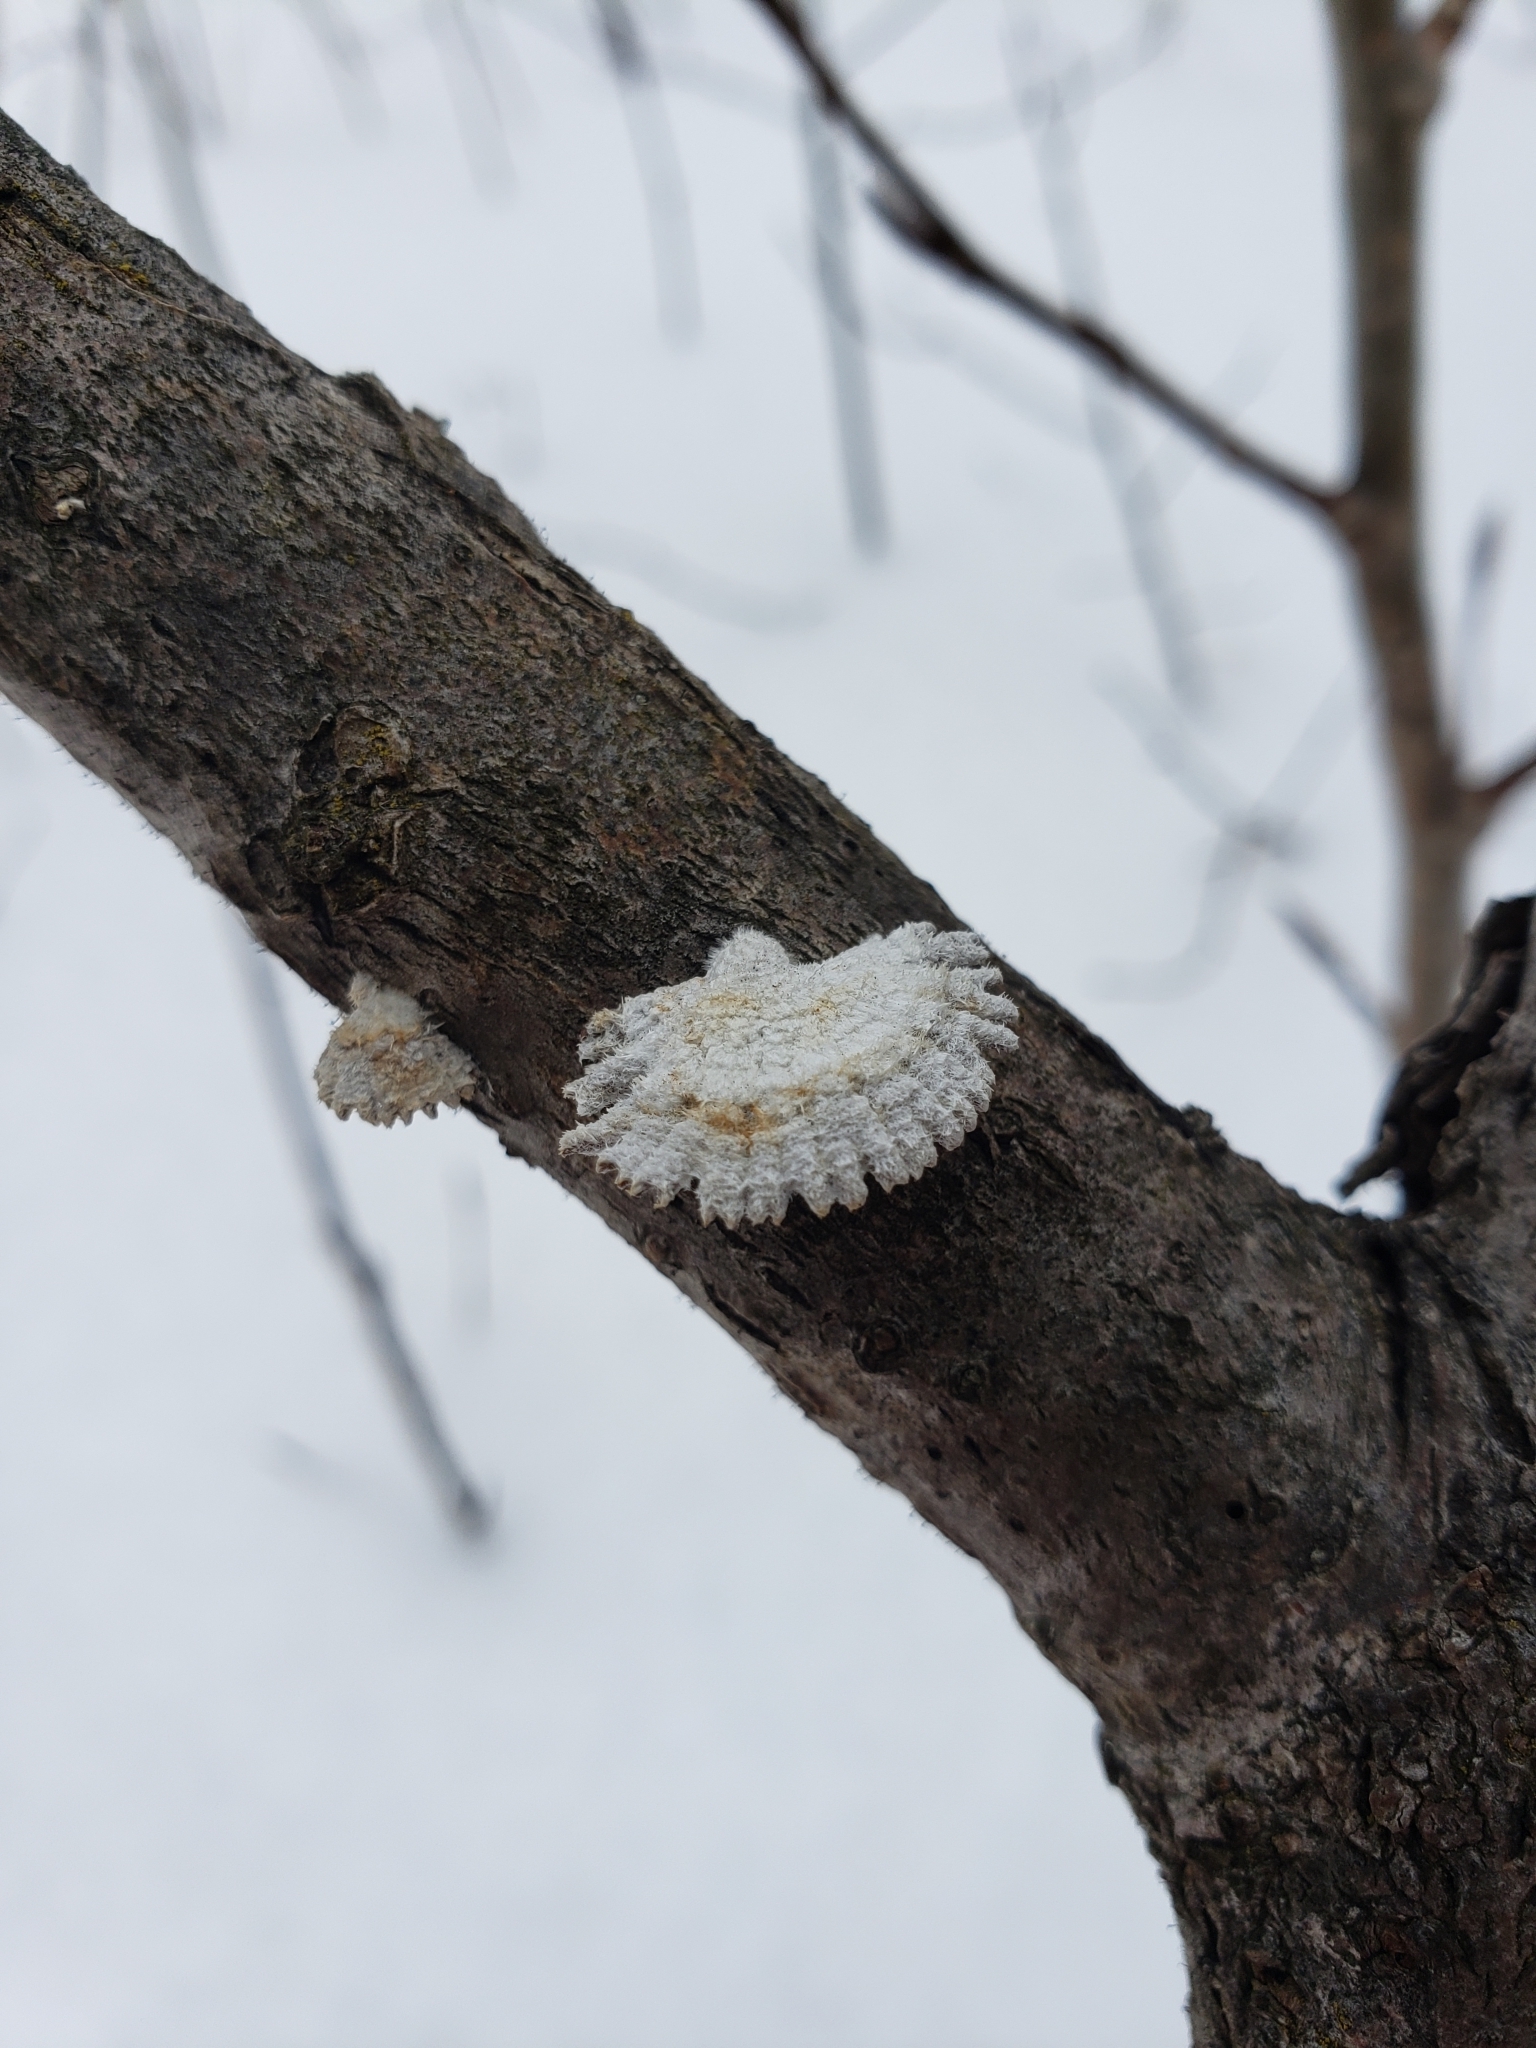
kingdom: Fungi
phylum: Basidiomycota
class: Agaricomycetes
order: Agaricales
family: Schizophyllaceae
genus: Schizophyllum
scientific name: Schizophyllum commune
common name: Common porecrust
